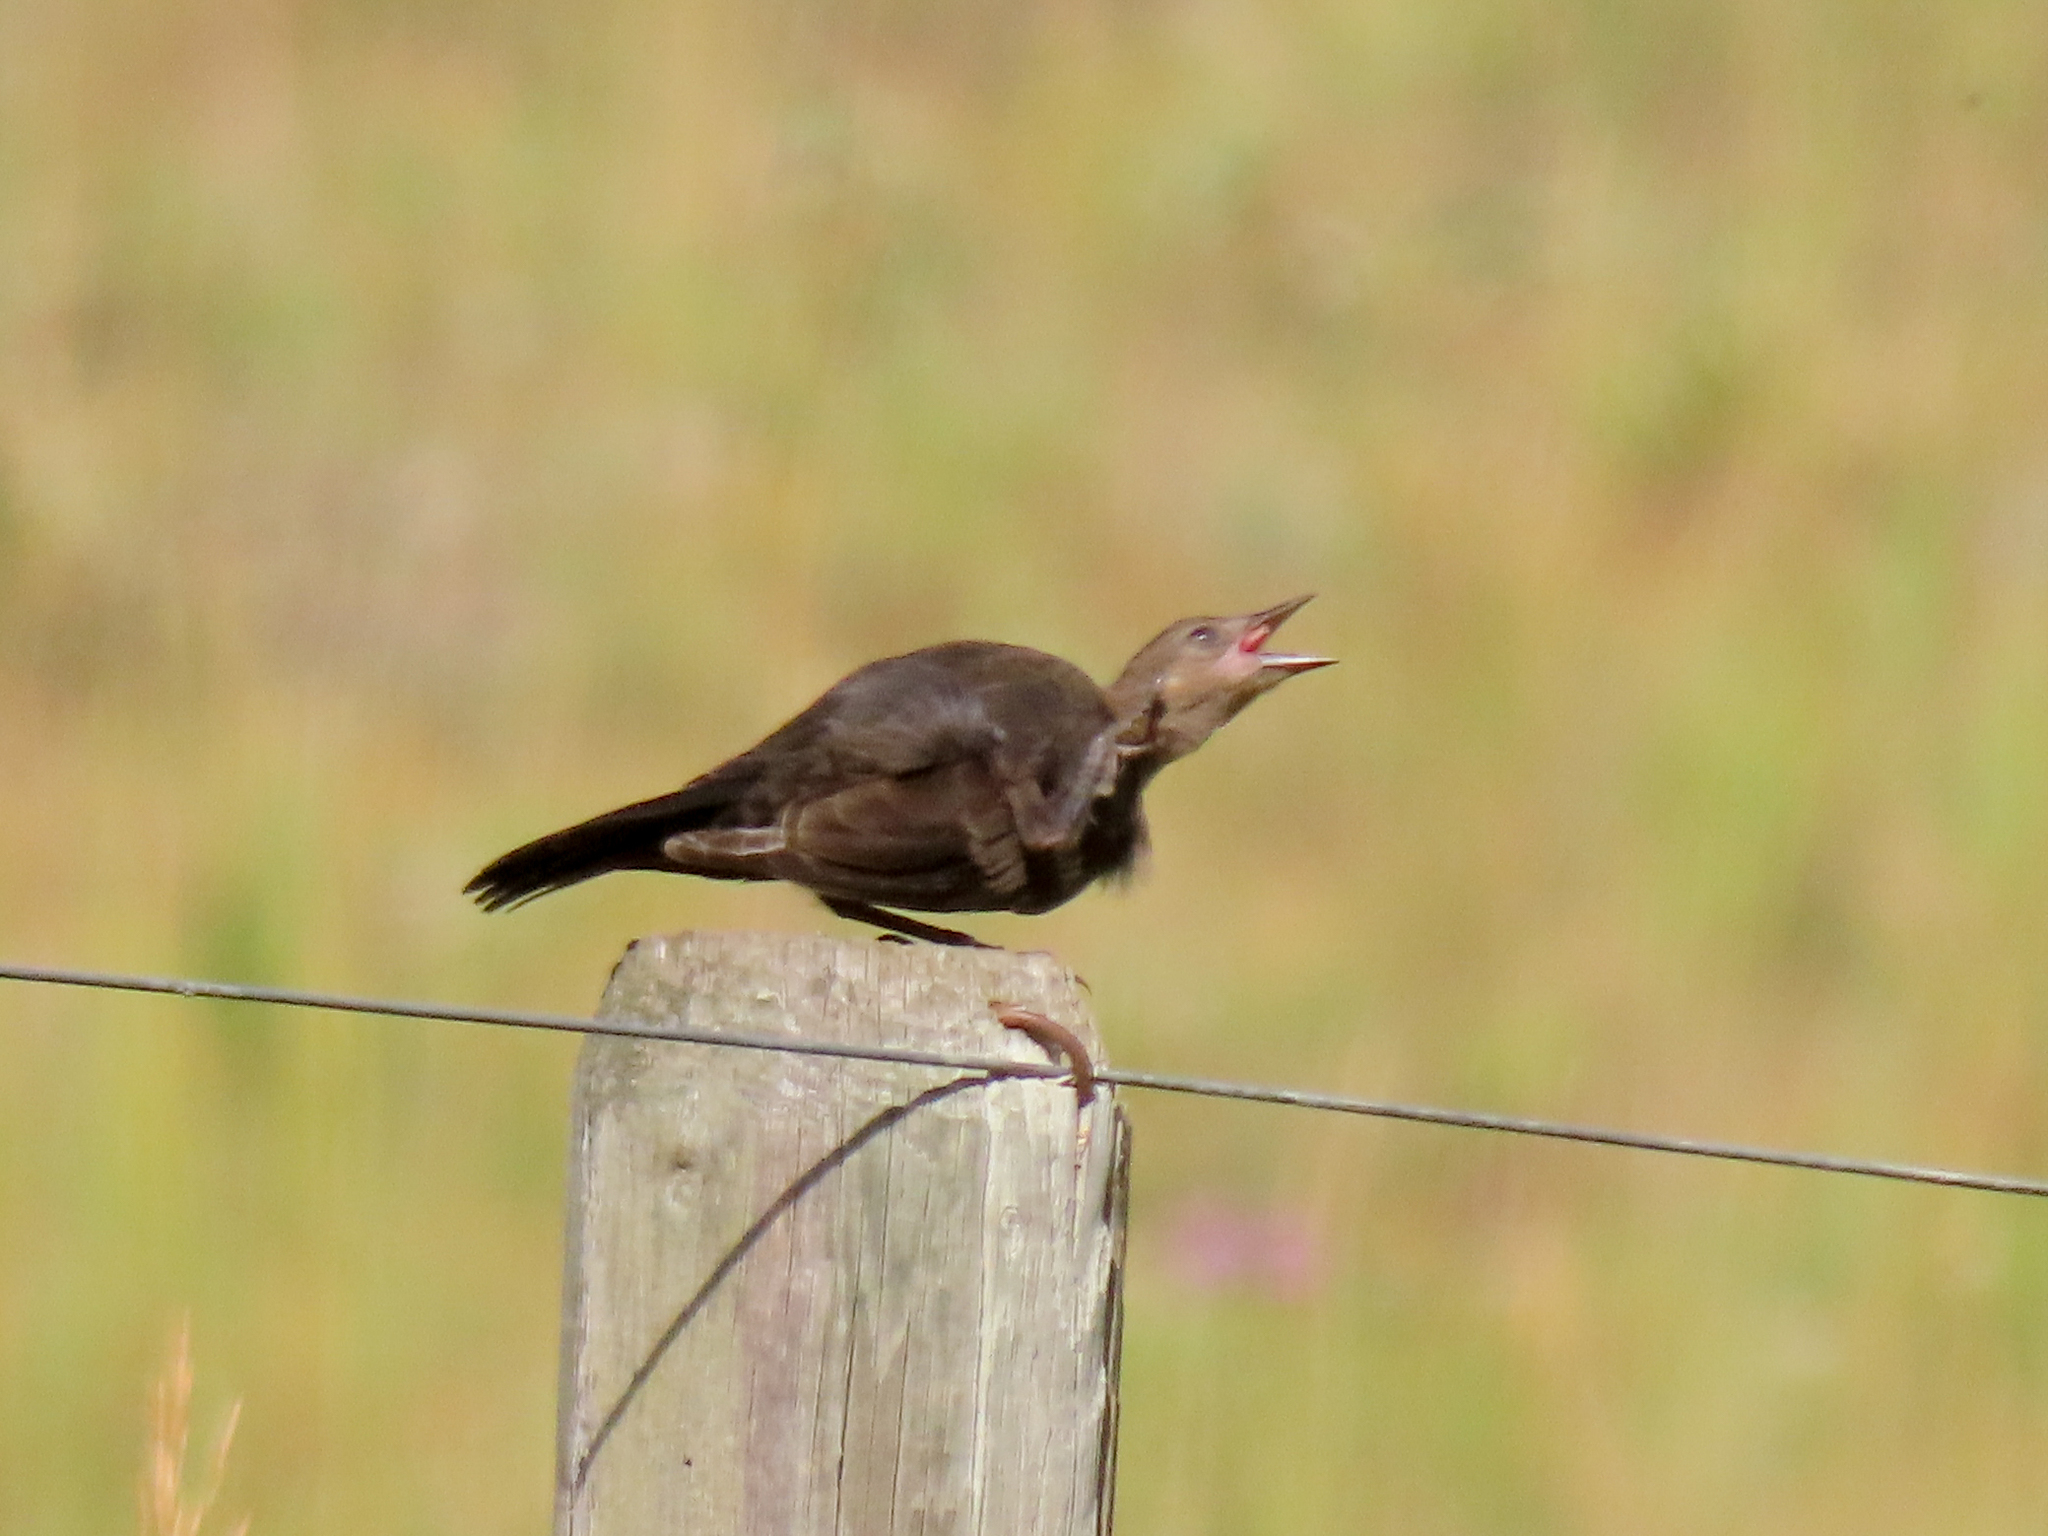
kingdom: Animalia
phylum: Chordata
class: Aves
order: Passeriformes
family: Icteridae
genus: Euphagus
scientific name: Euphagus cyanocephalus
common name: Brewer's blackbird
